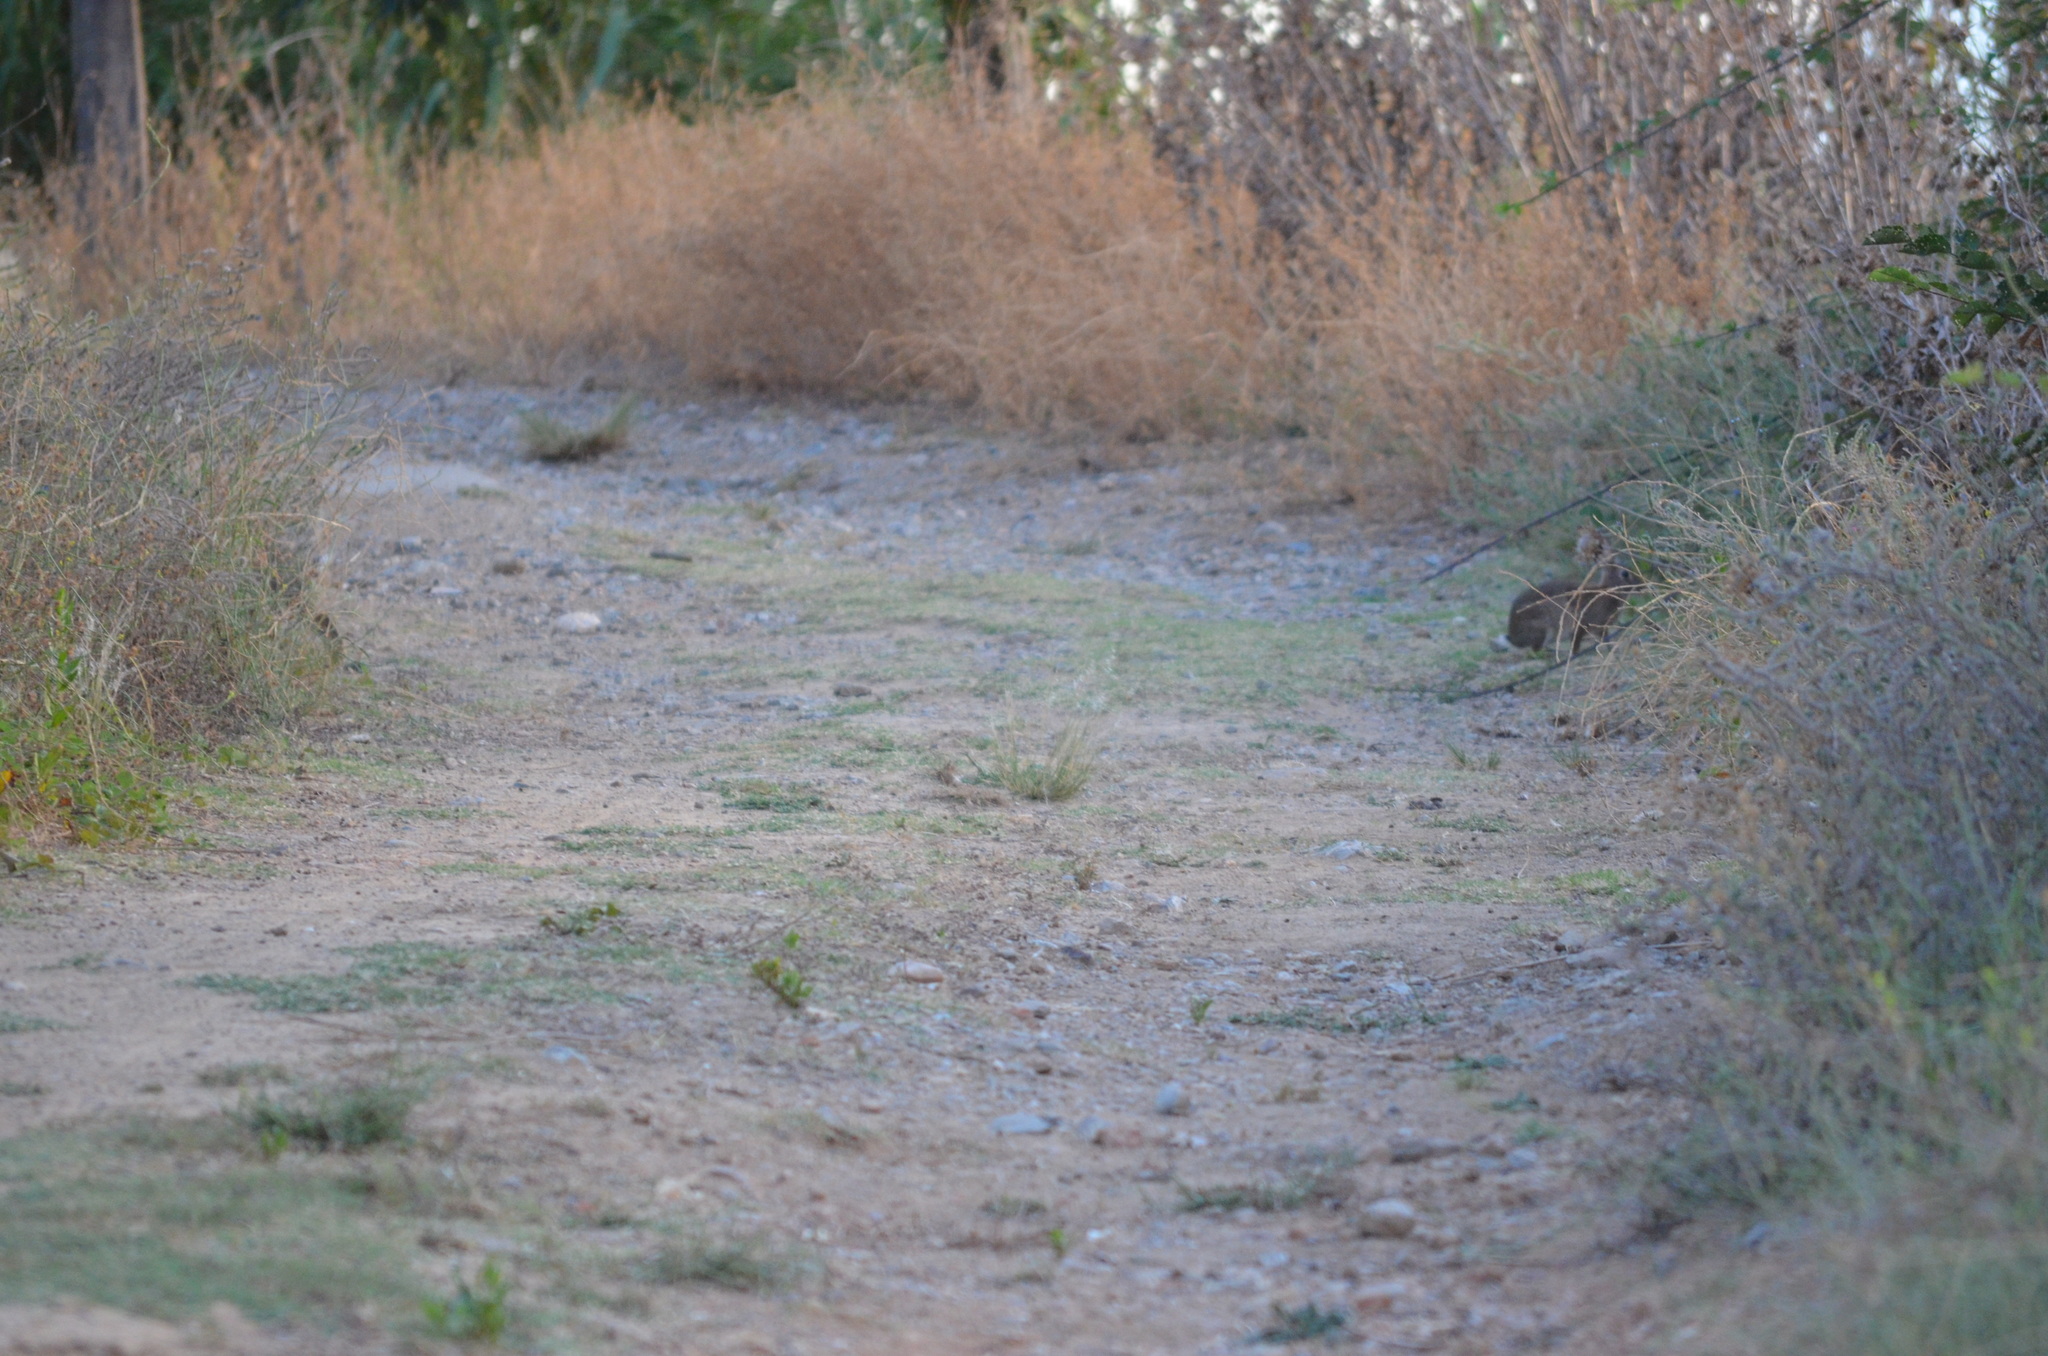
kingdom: Animalia
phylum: Chordata
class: Mammalia
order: Lagomorpha
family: Leporidae
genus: Oryctolagus
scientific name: Oryctolagus cuniculus
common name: European rabbit
